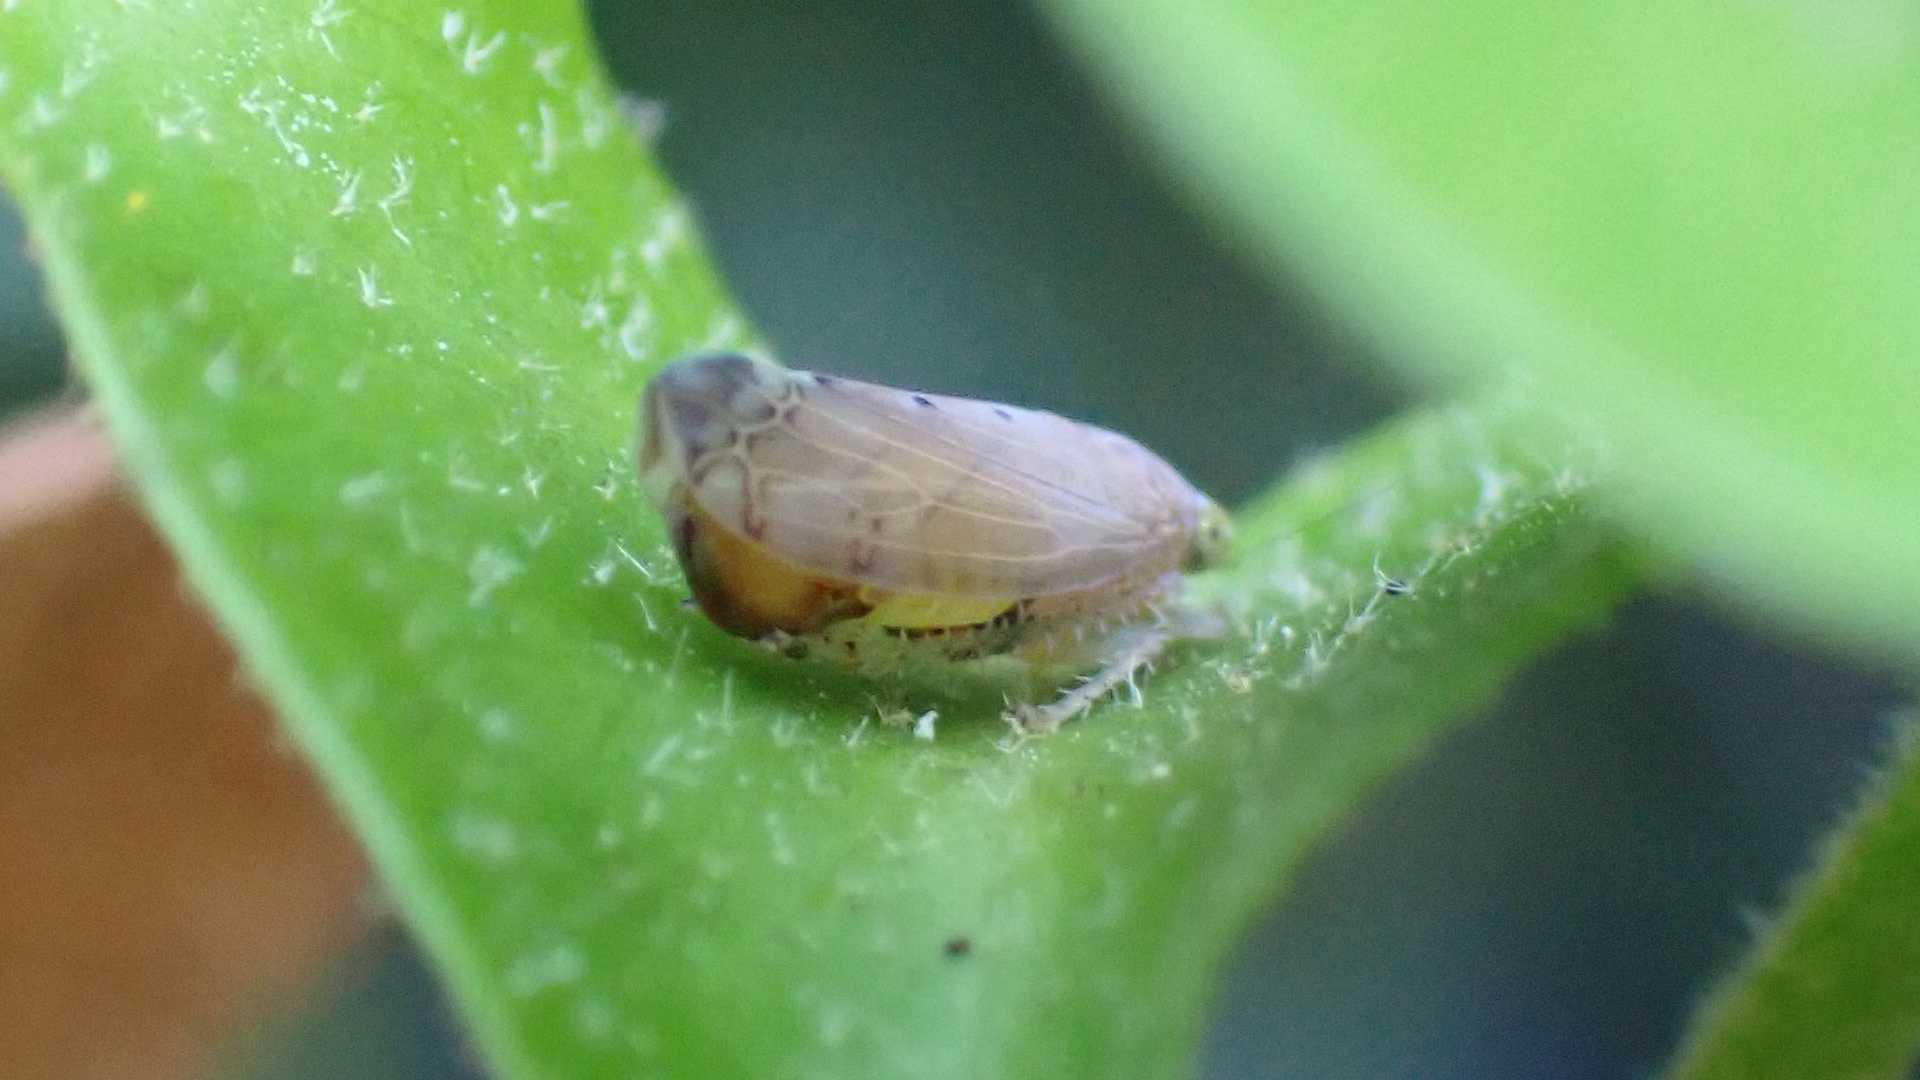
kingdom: Animalia
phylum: Arthropoda
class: Insecta
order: Hemiptera
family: Cicadellidae
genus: Synophropsis
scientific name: Synophropsis lauri
